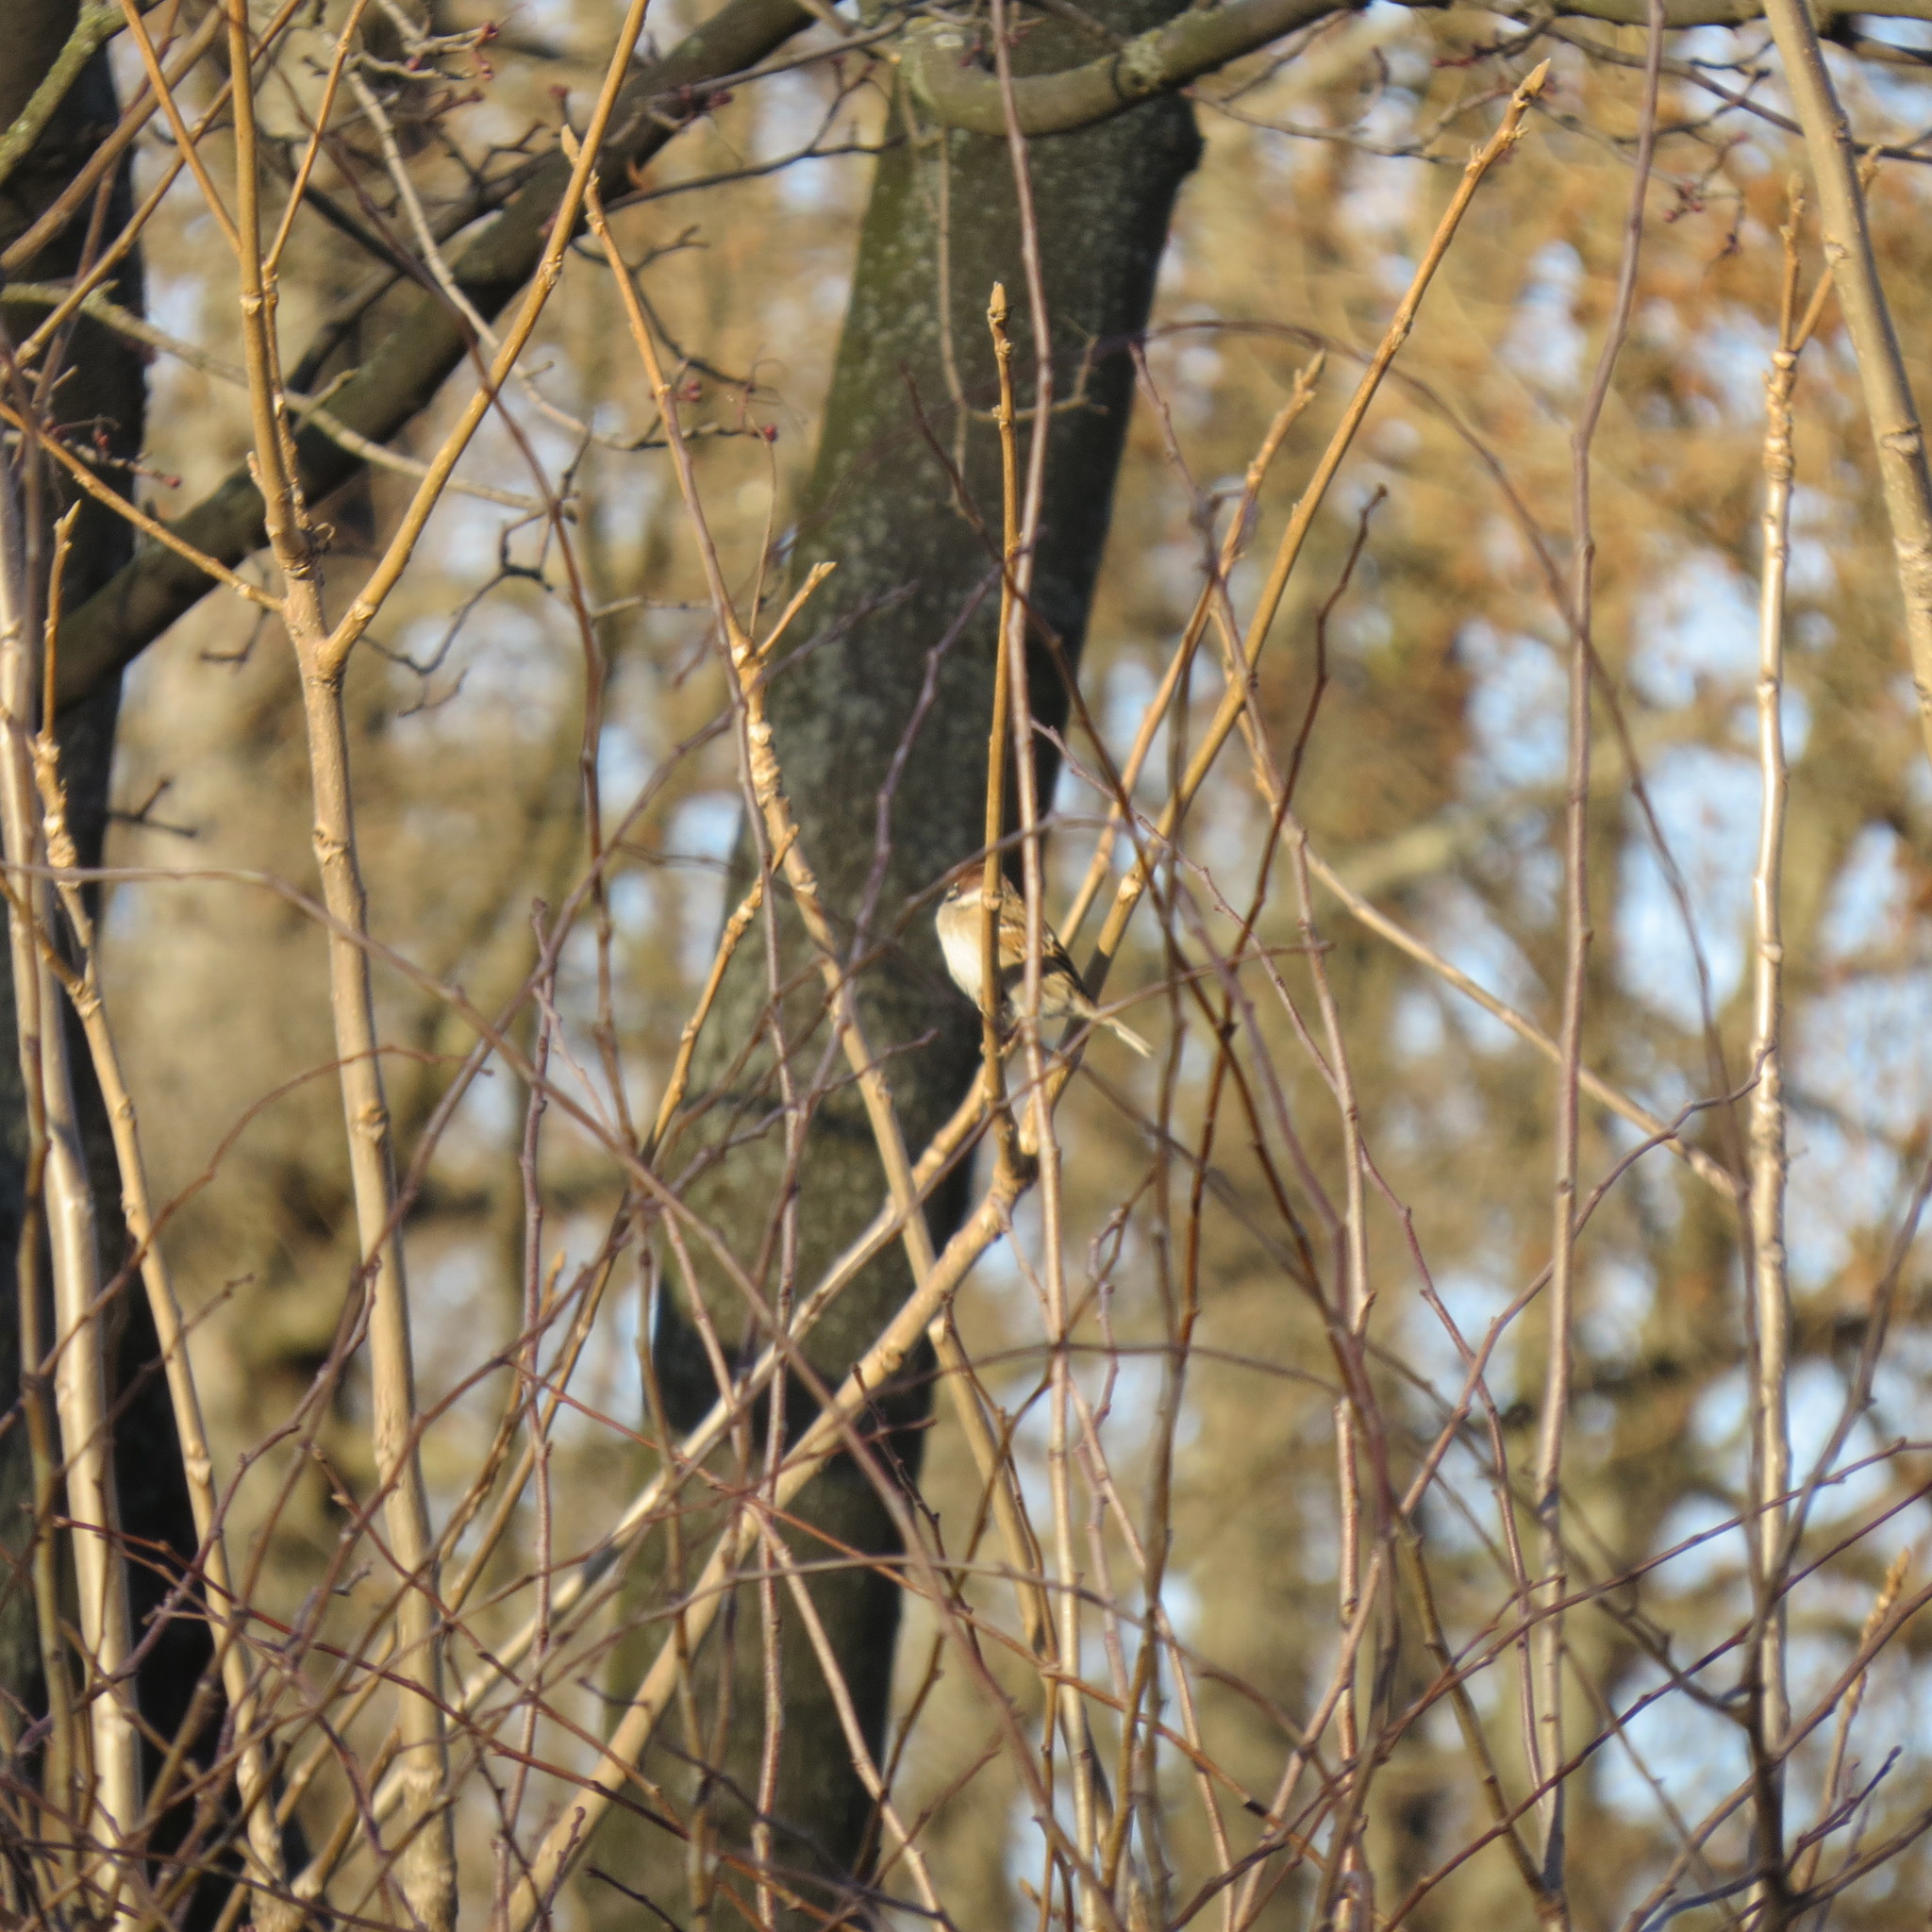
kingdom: Animalia
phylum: Chordata
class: Aves
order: Passeriformes
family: Passeridae
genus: Passer
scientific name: Passer montanus
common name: Eurasian tree sparrow
